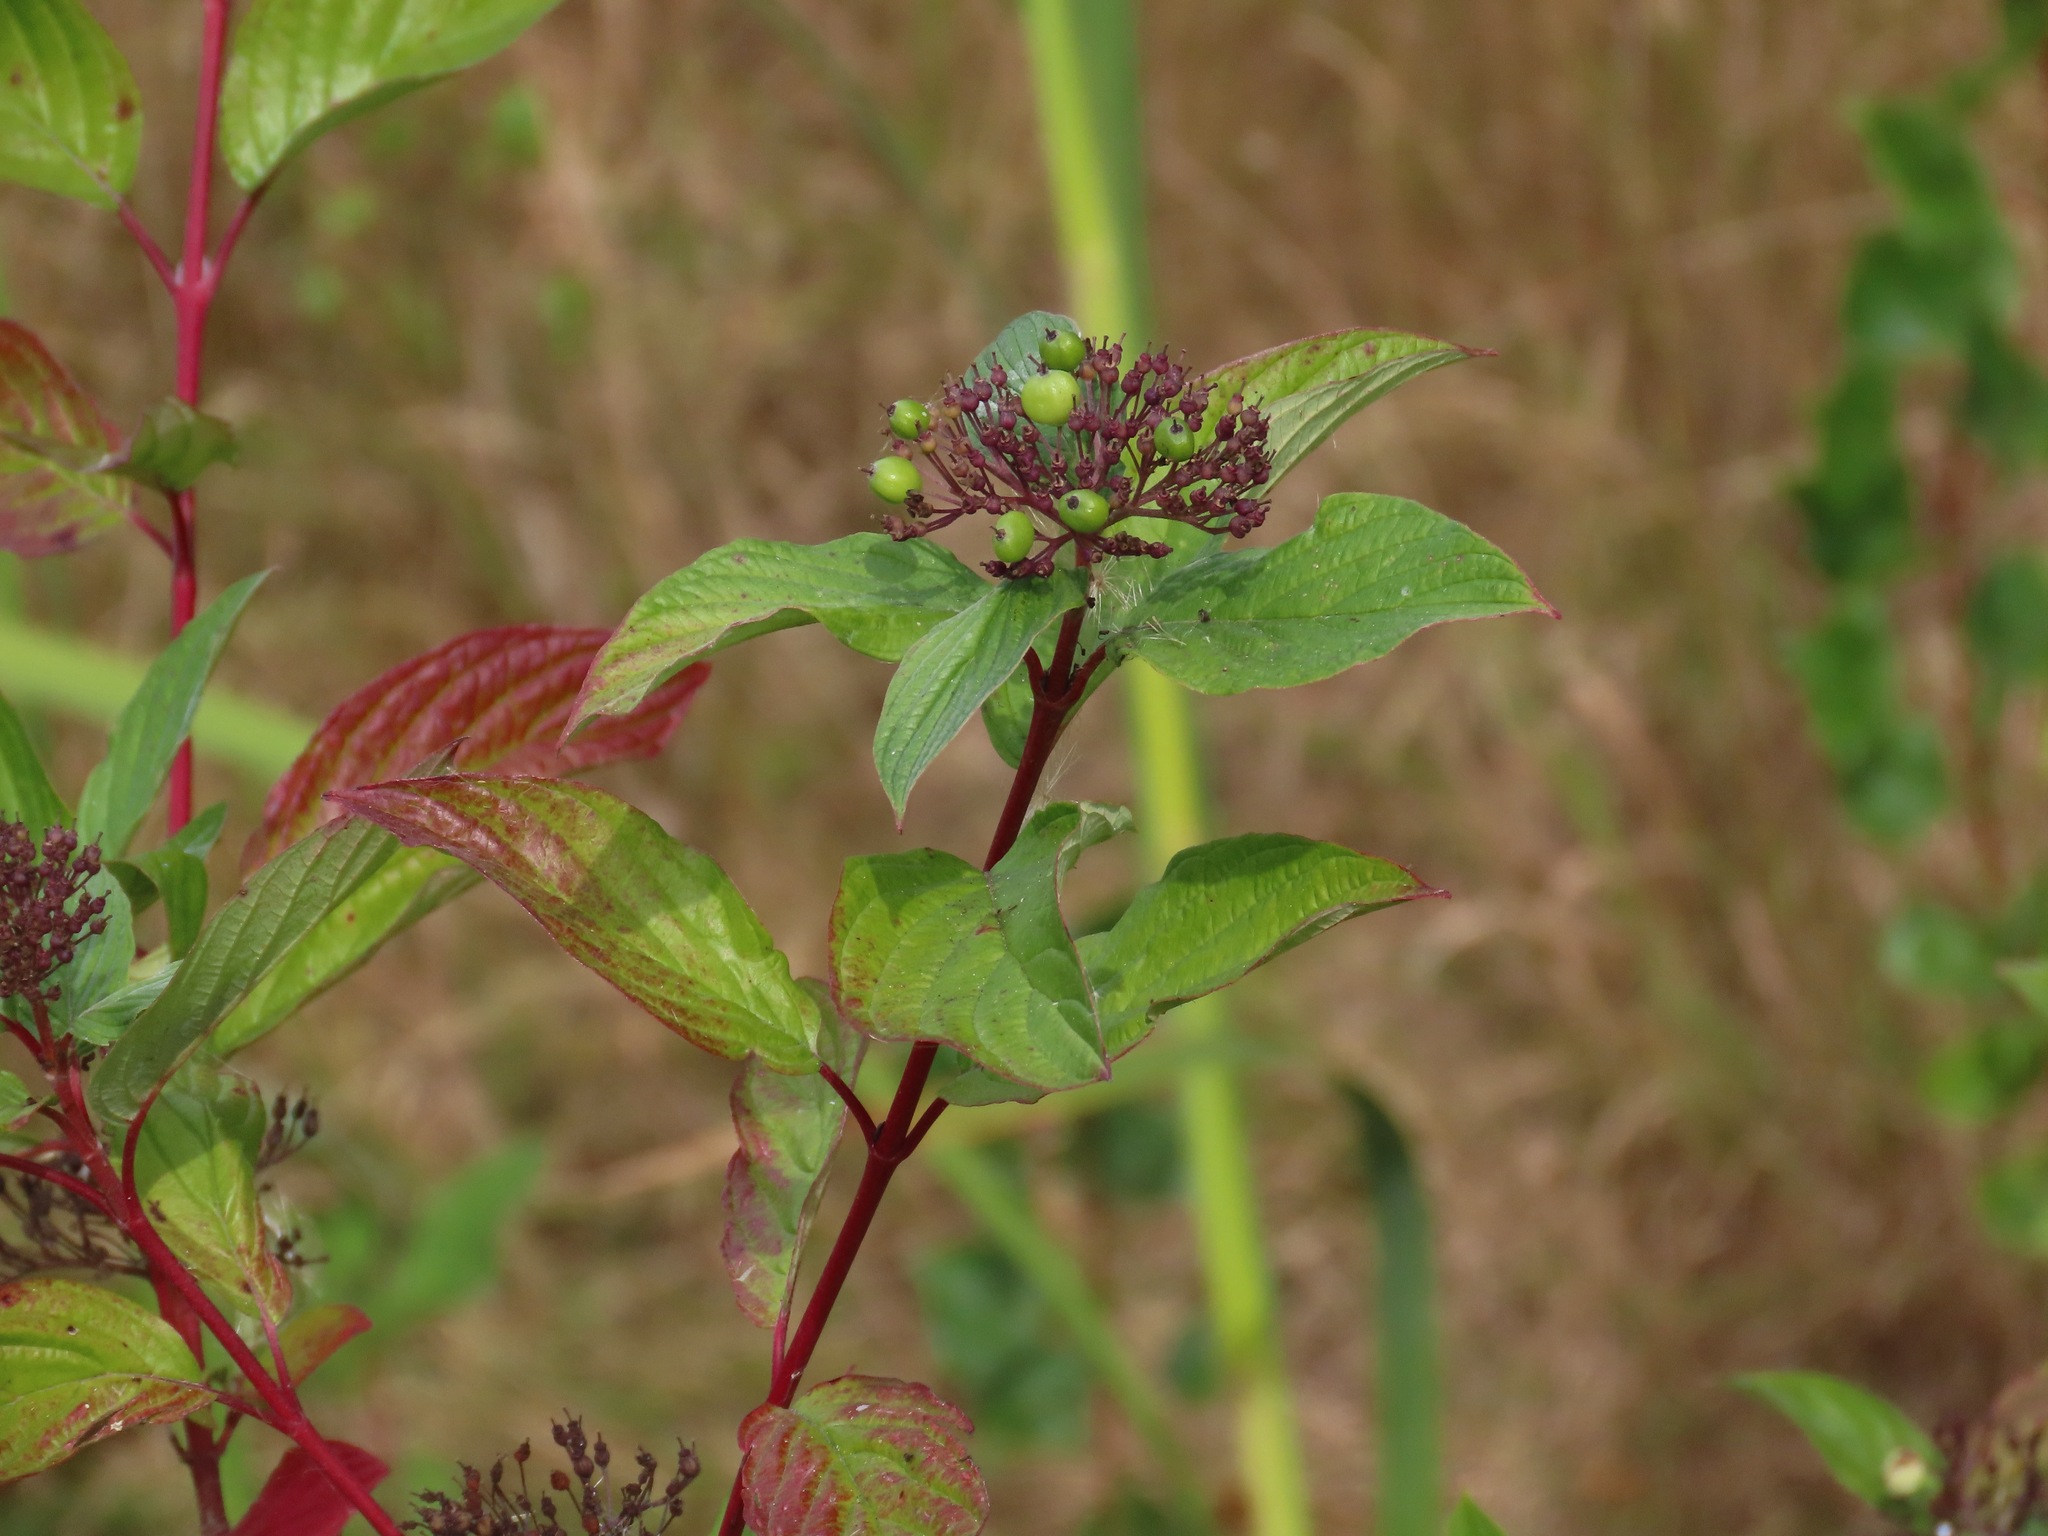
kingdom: Plantae
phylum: Tracheophyta
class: Magnoliopsida
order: Cornales
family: Cornaceae
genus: Cornus
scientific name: Cornus sericea
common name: Red-osier dogwood
